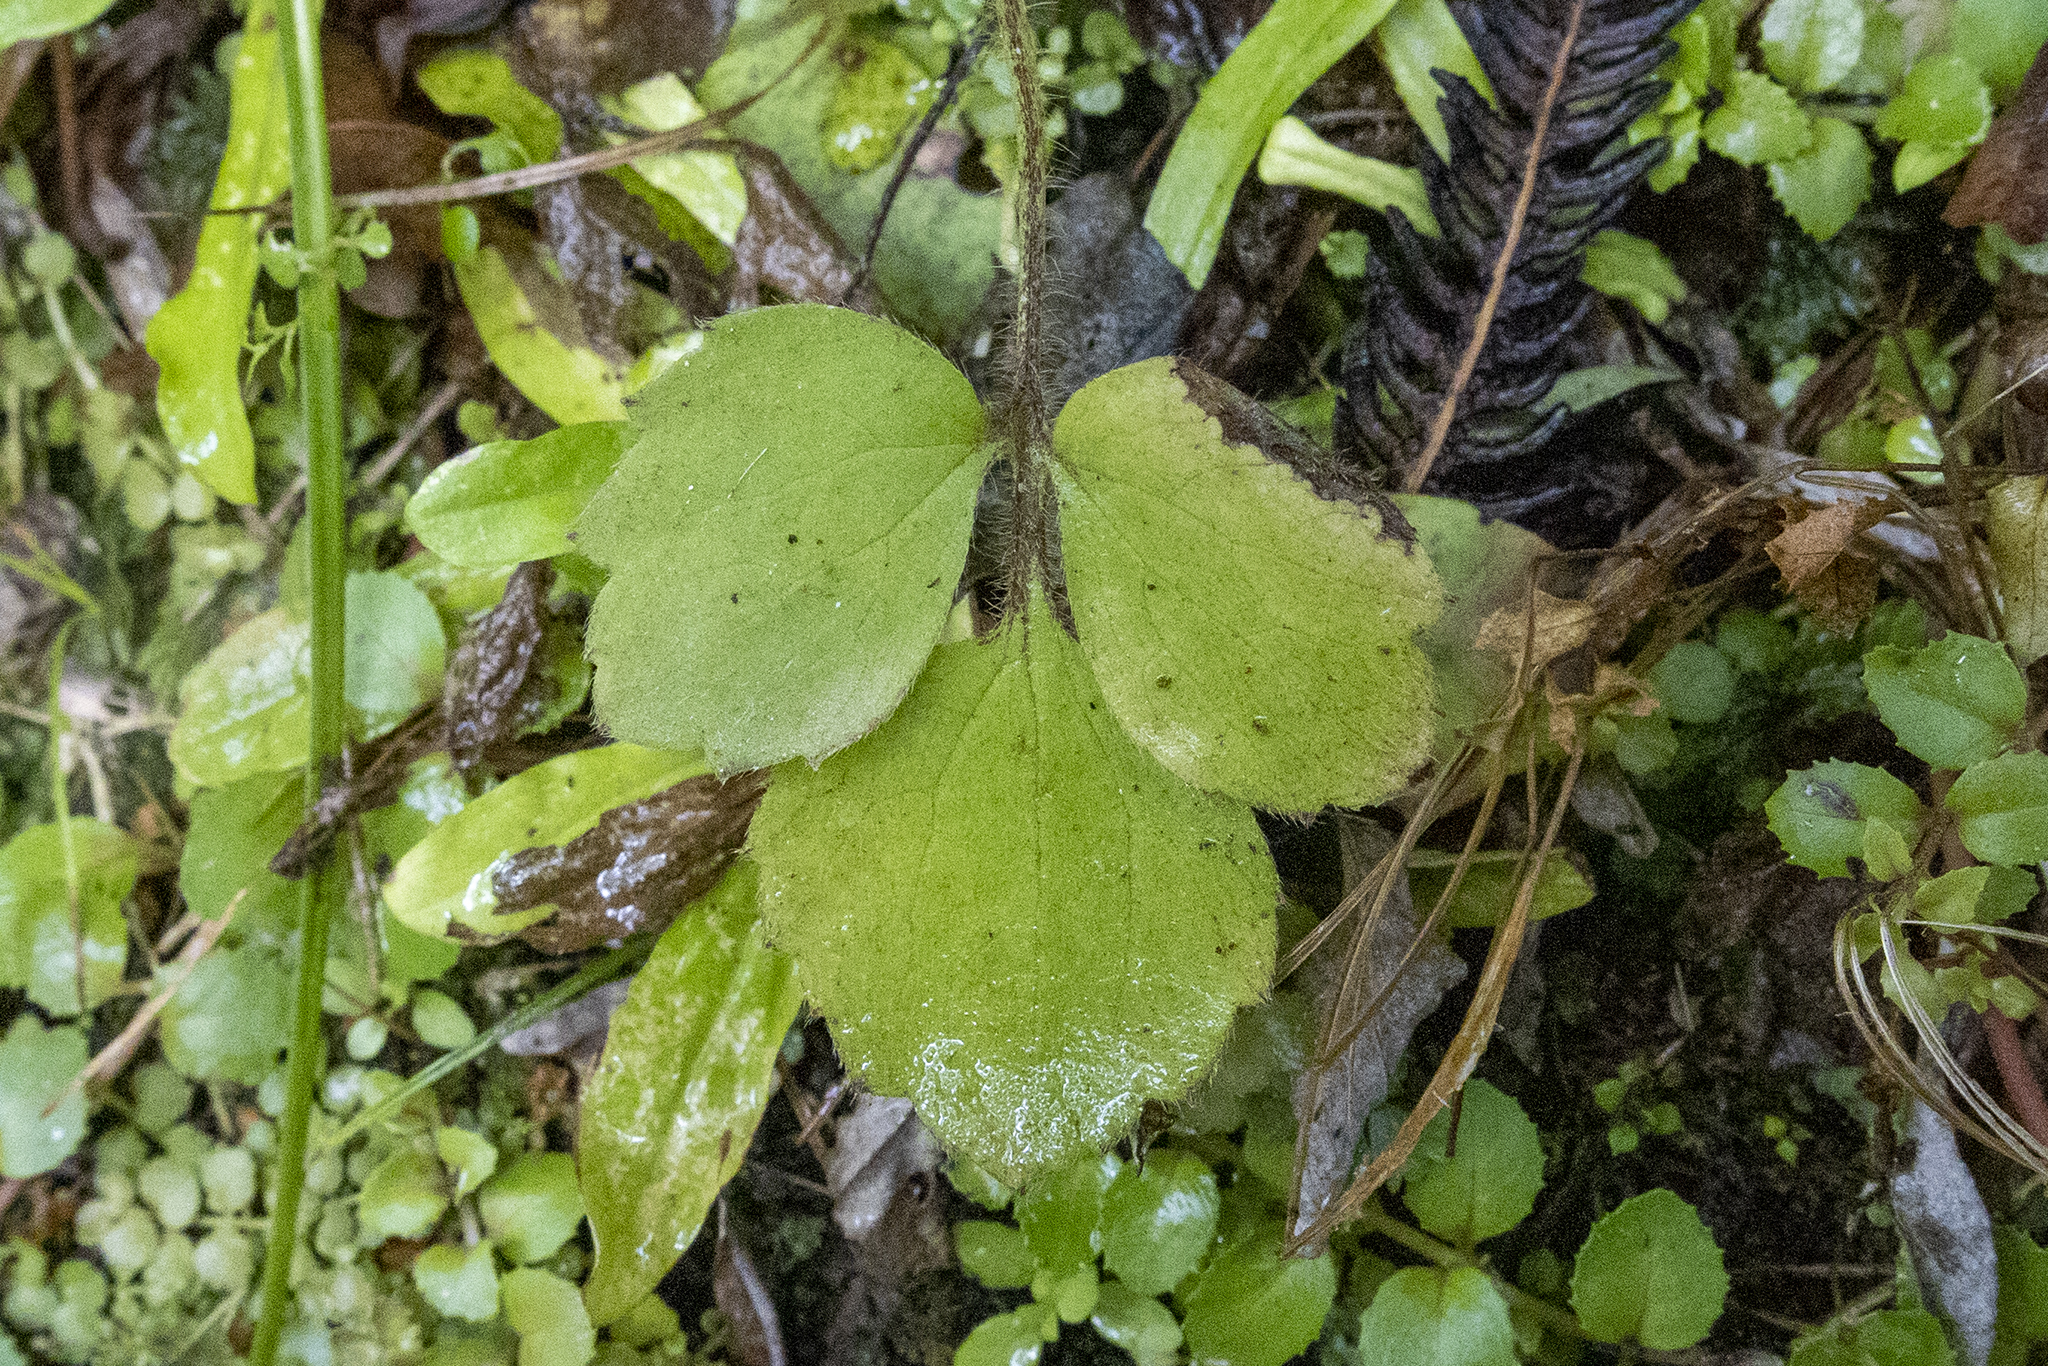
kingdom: Plantae
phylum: Tracheophyta
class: Magnoliopsida
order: Ranunculales
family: Ranunculaceae
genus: Ranunculus
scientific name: Ranunculus reflexus
